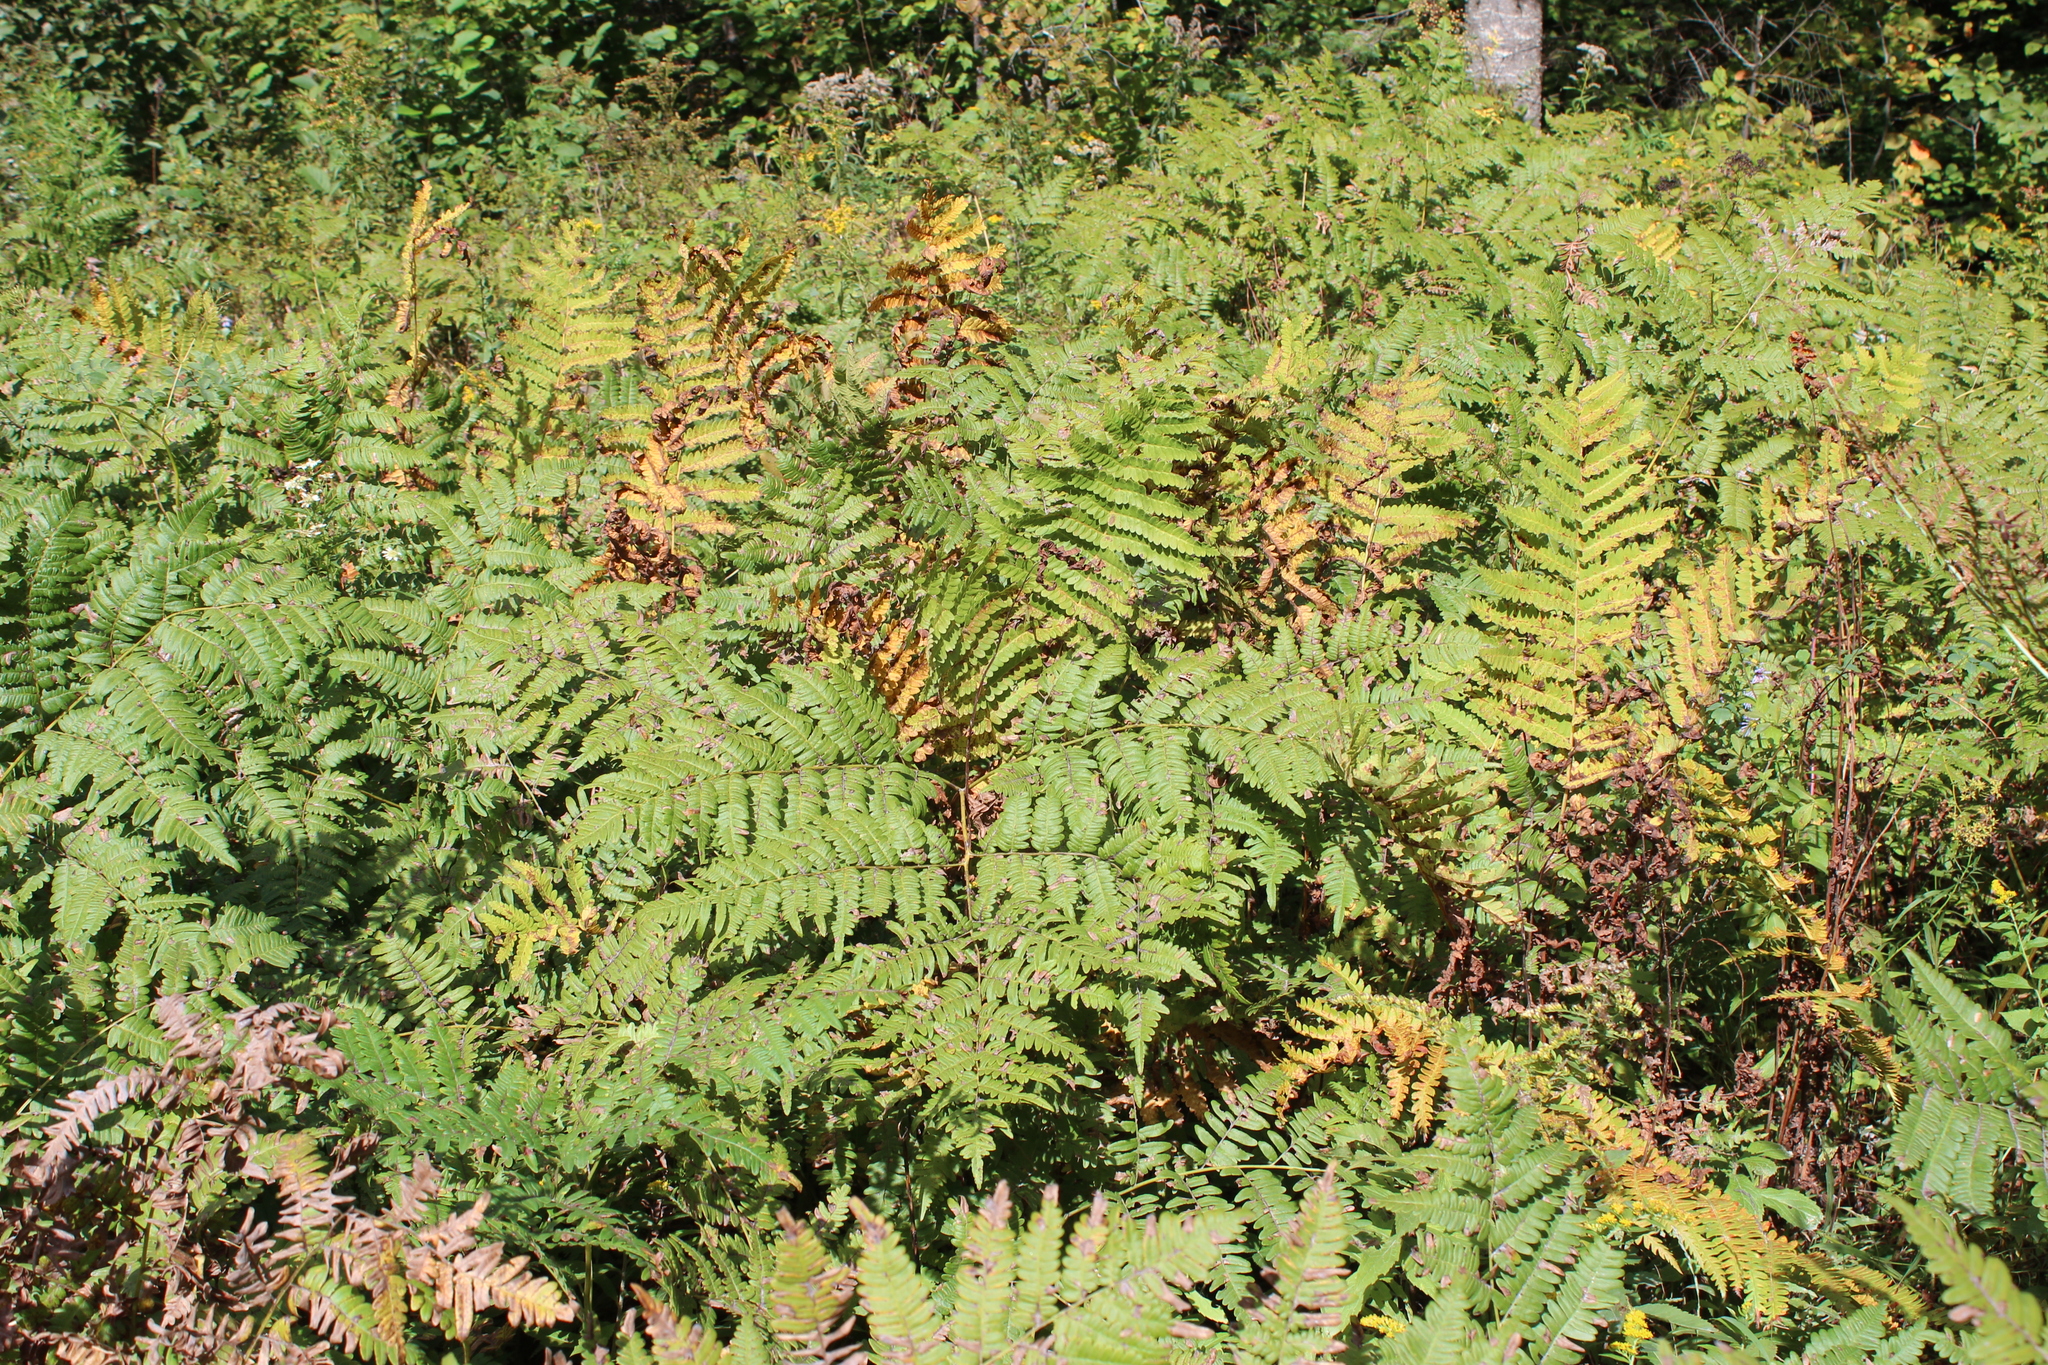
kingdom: Plantae
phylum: Tracheophyta
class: Polypodiopsida
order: Polypodiales
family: Dennstaedtiaceae
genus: Pteridium
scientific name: Pteridium aquilinum
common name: Bracken
